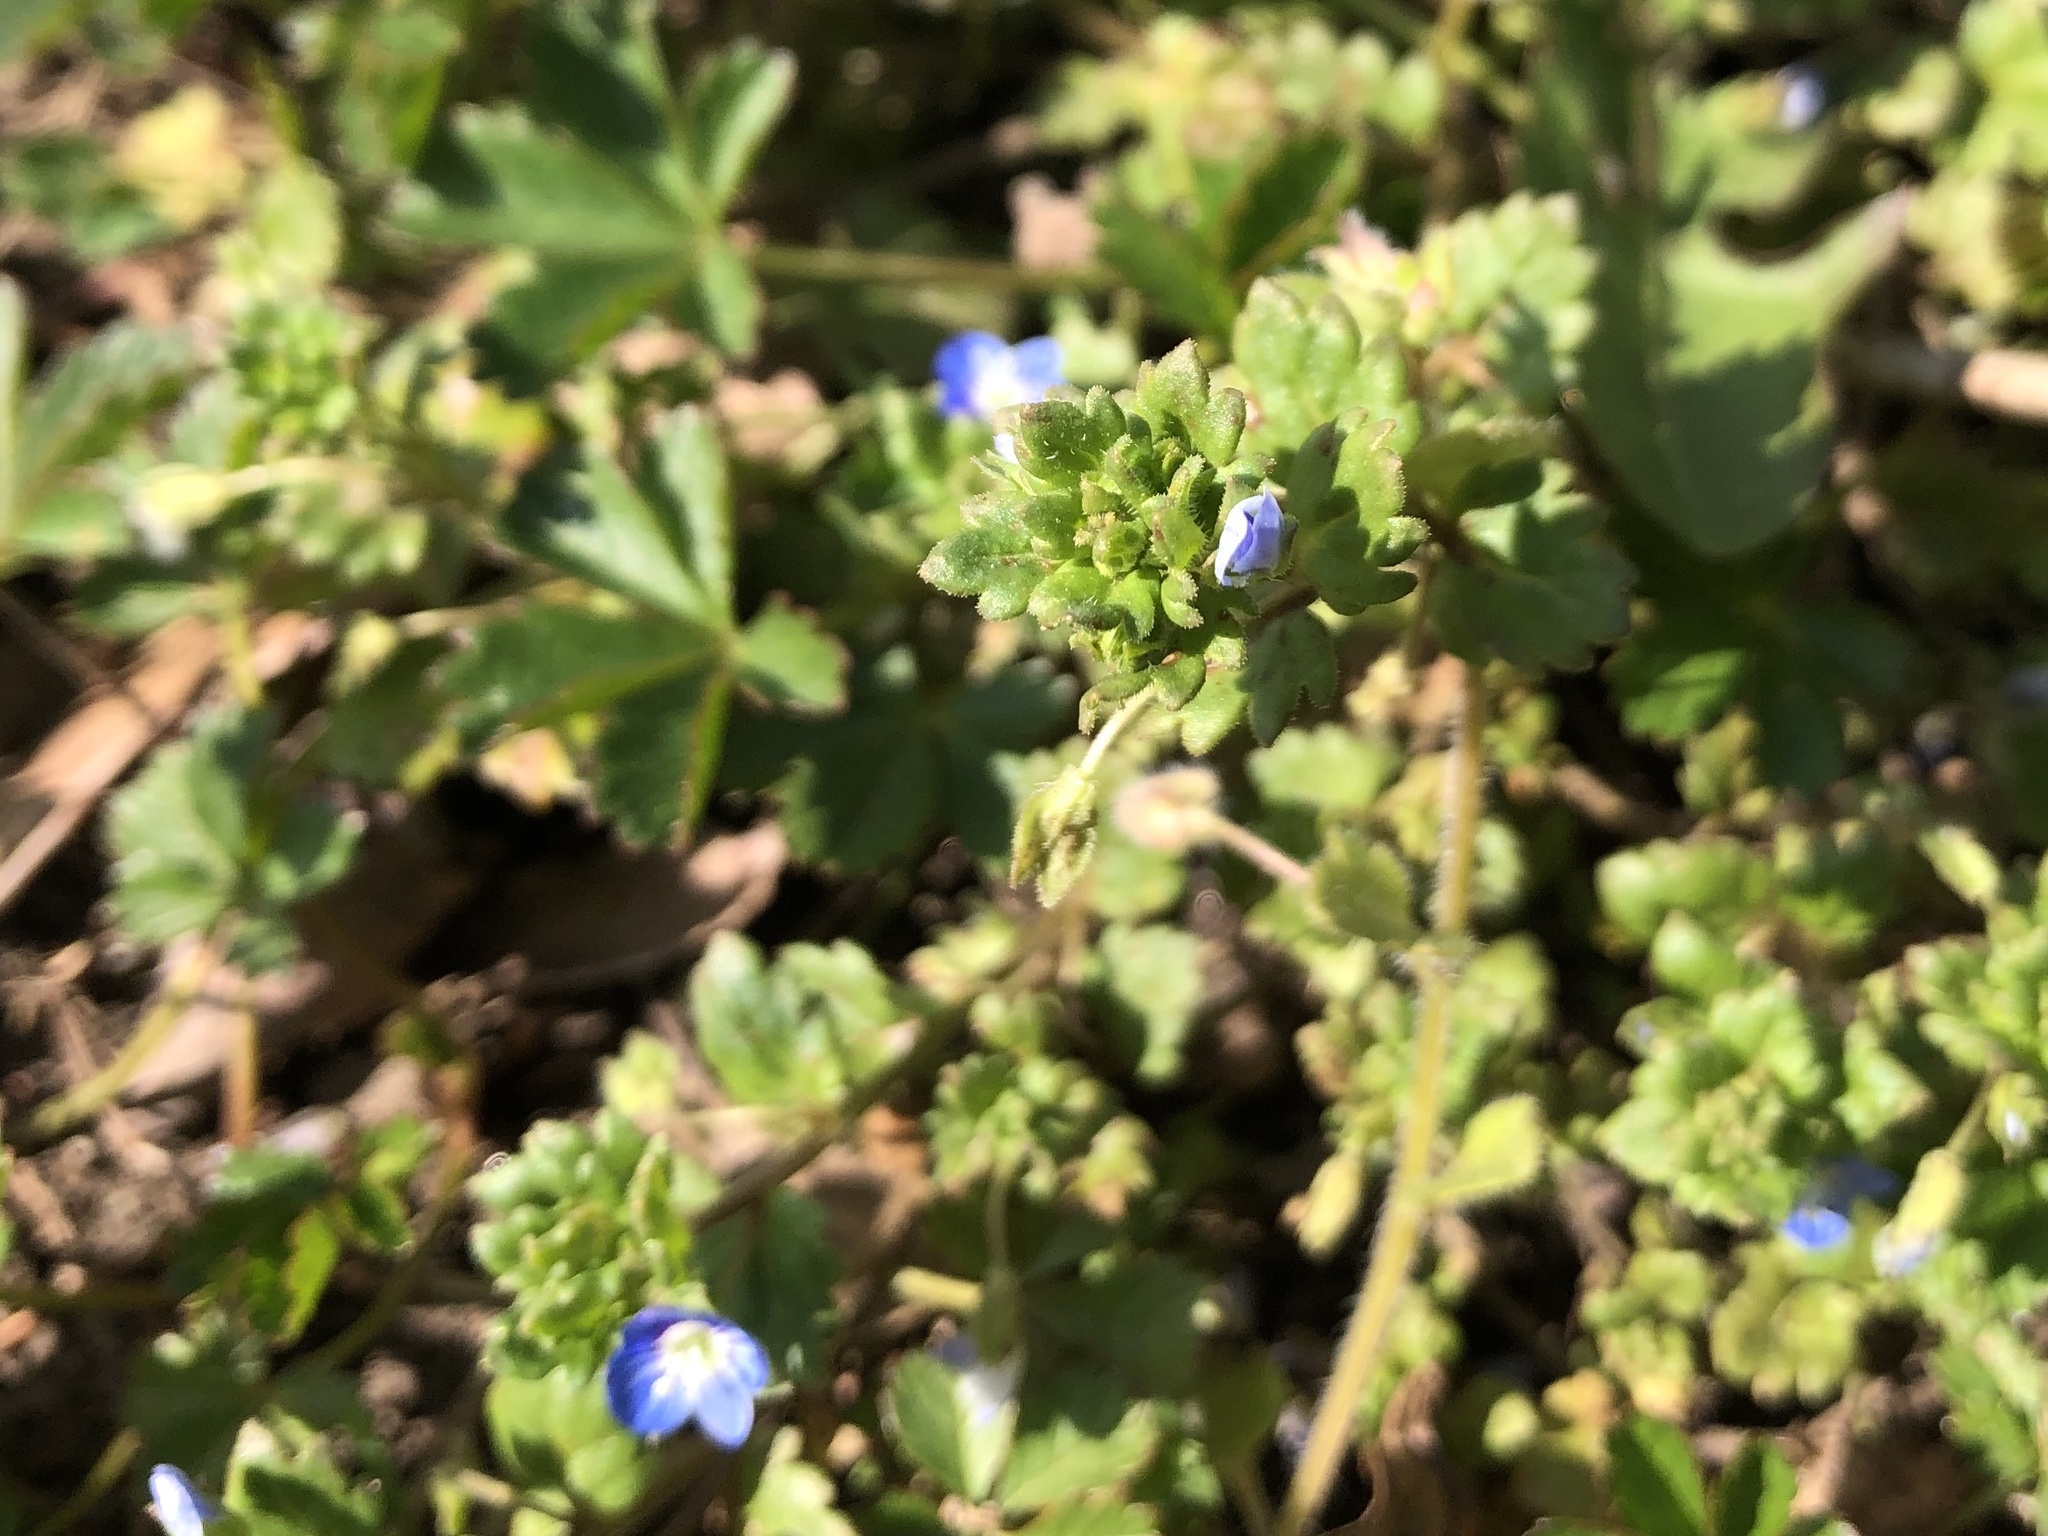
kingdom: Plantae
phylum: Tracheophyta
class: Magnoliopsida
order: Lamiales
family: Plantaginaceae
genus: Veronica
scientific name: Veronica polita
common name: Grey field-speedwell
